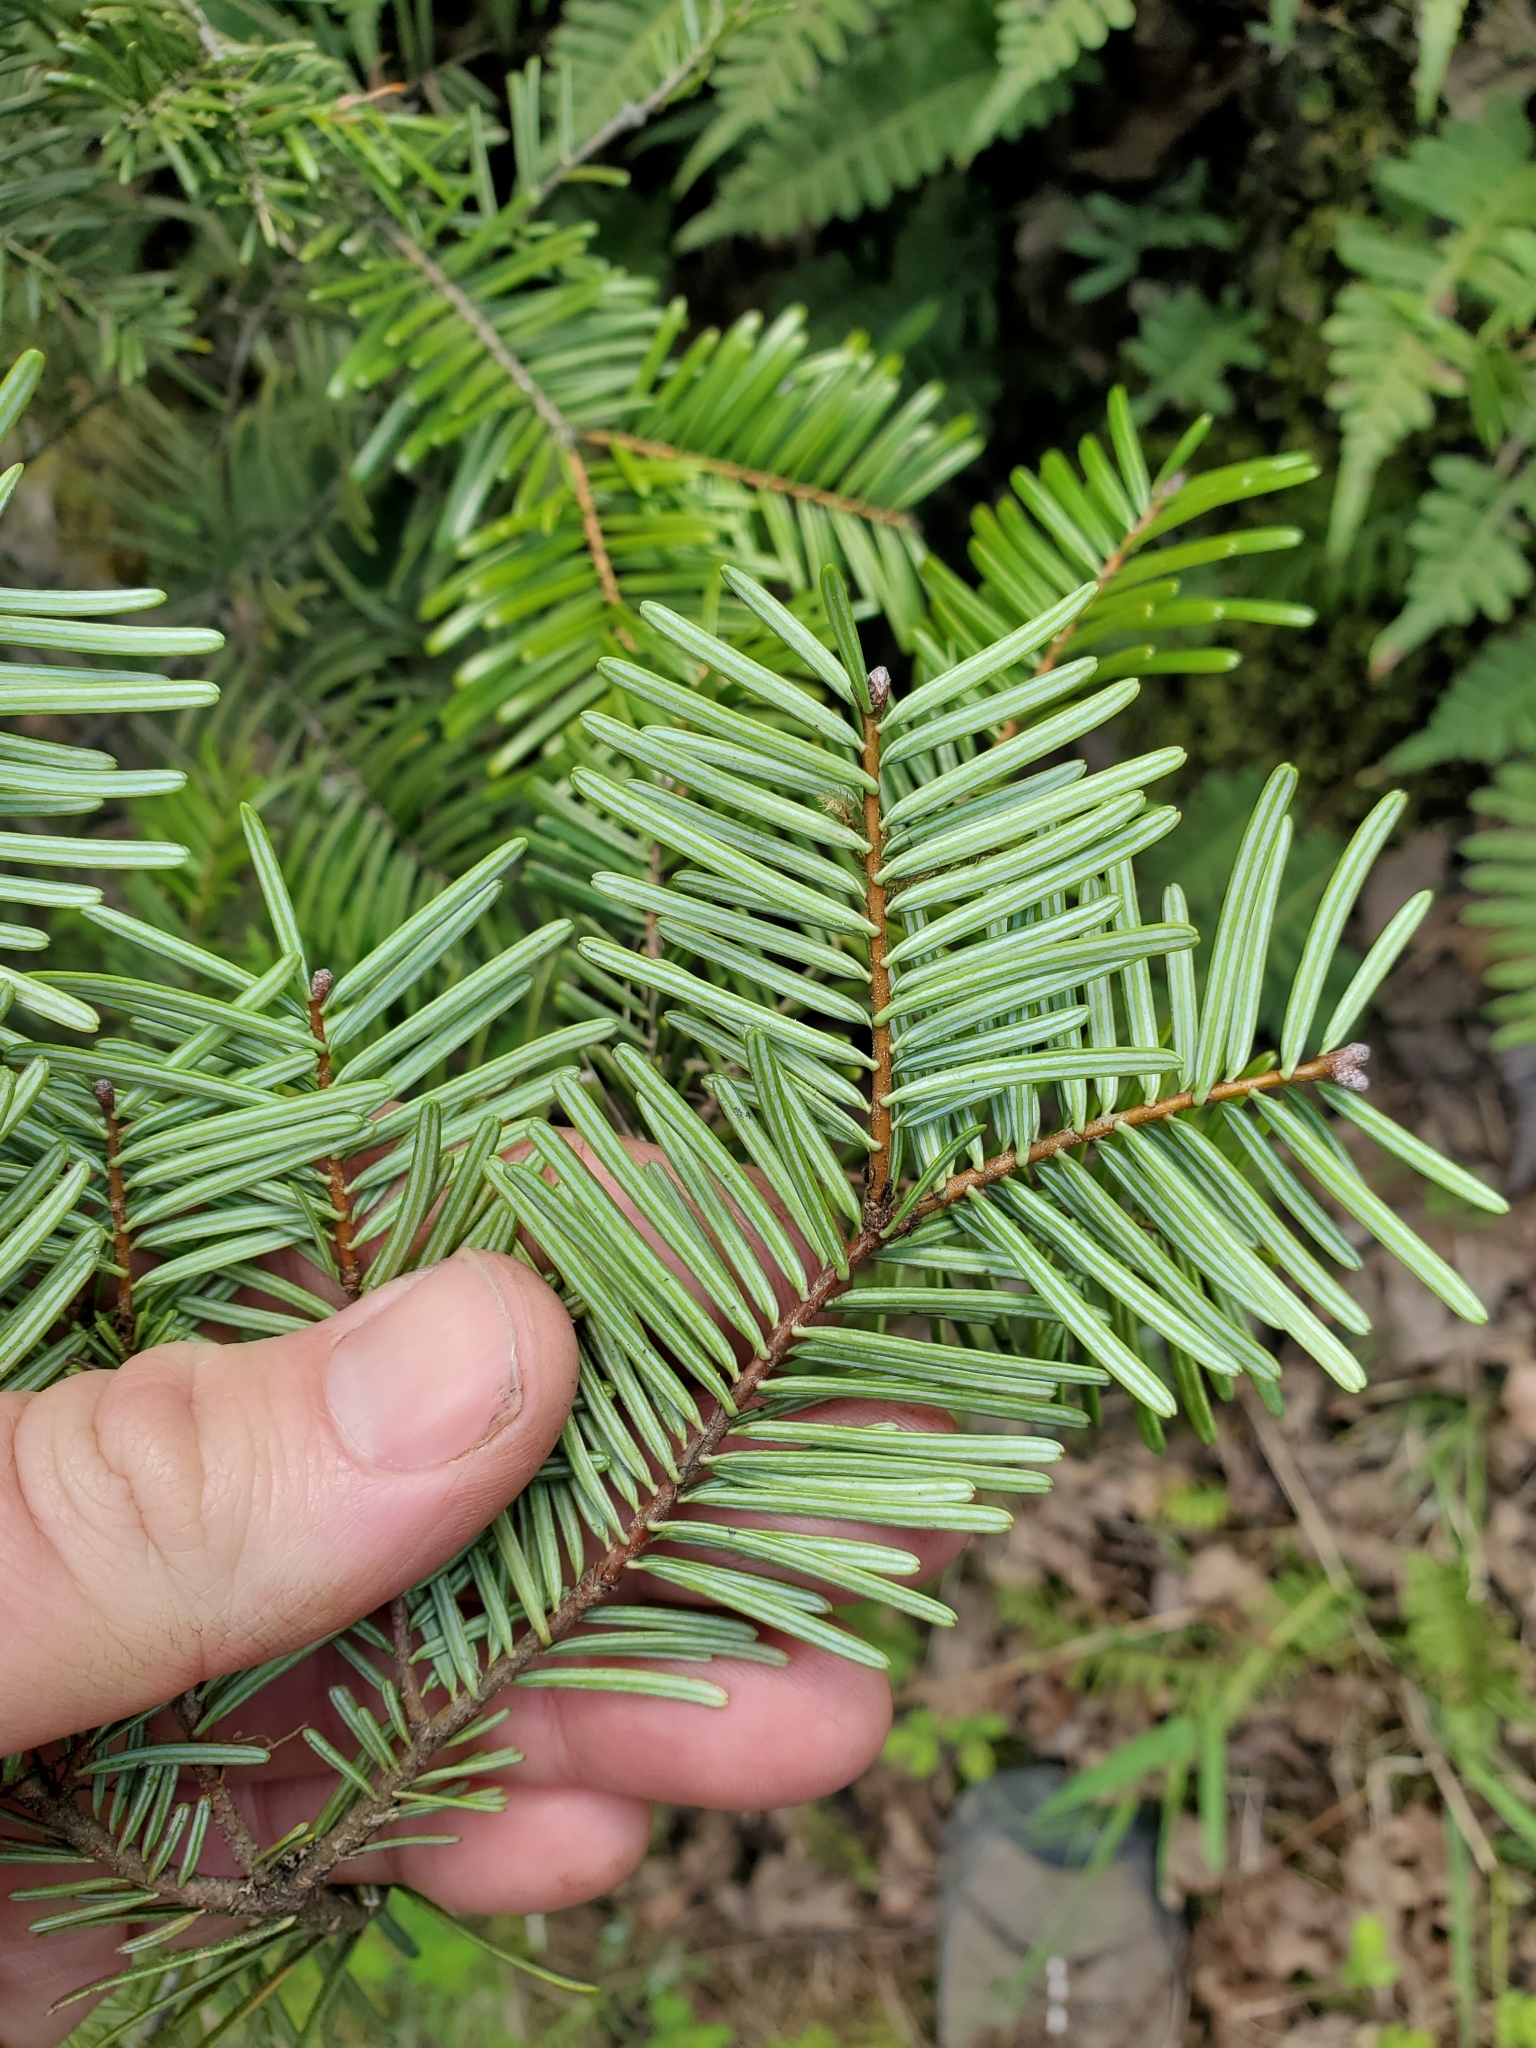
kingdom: Plantae
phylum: Tracheophyta
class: Pinopsida
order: Pinales
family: Pinaceae
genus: Abies
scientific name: Abies grandis
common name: Giant fir
